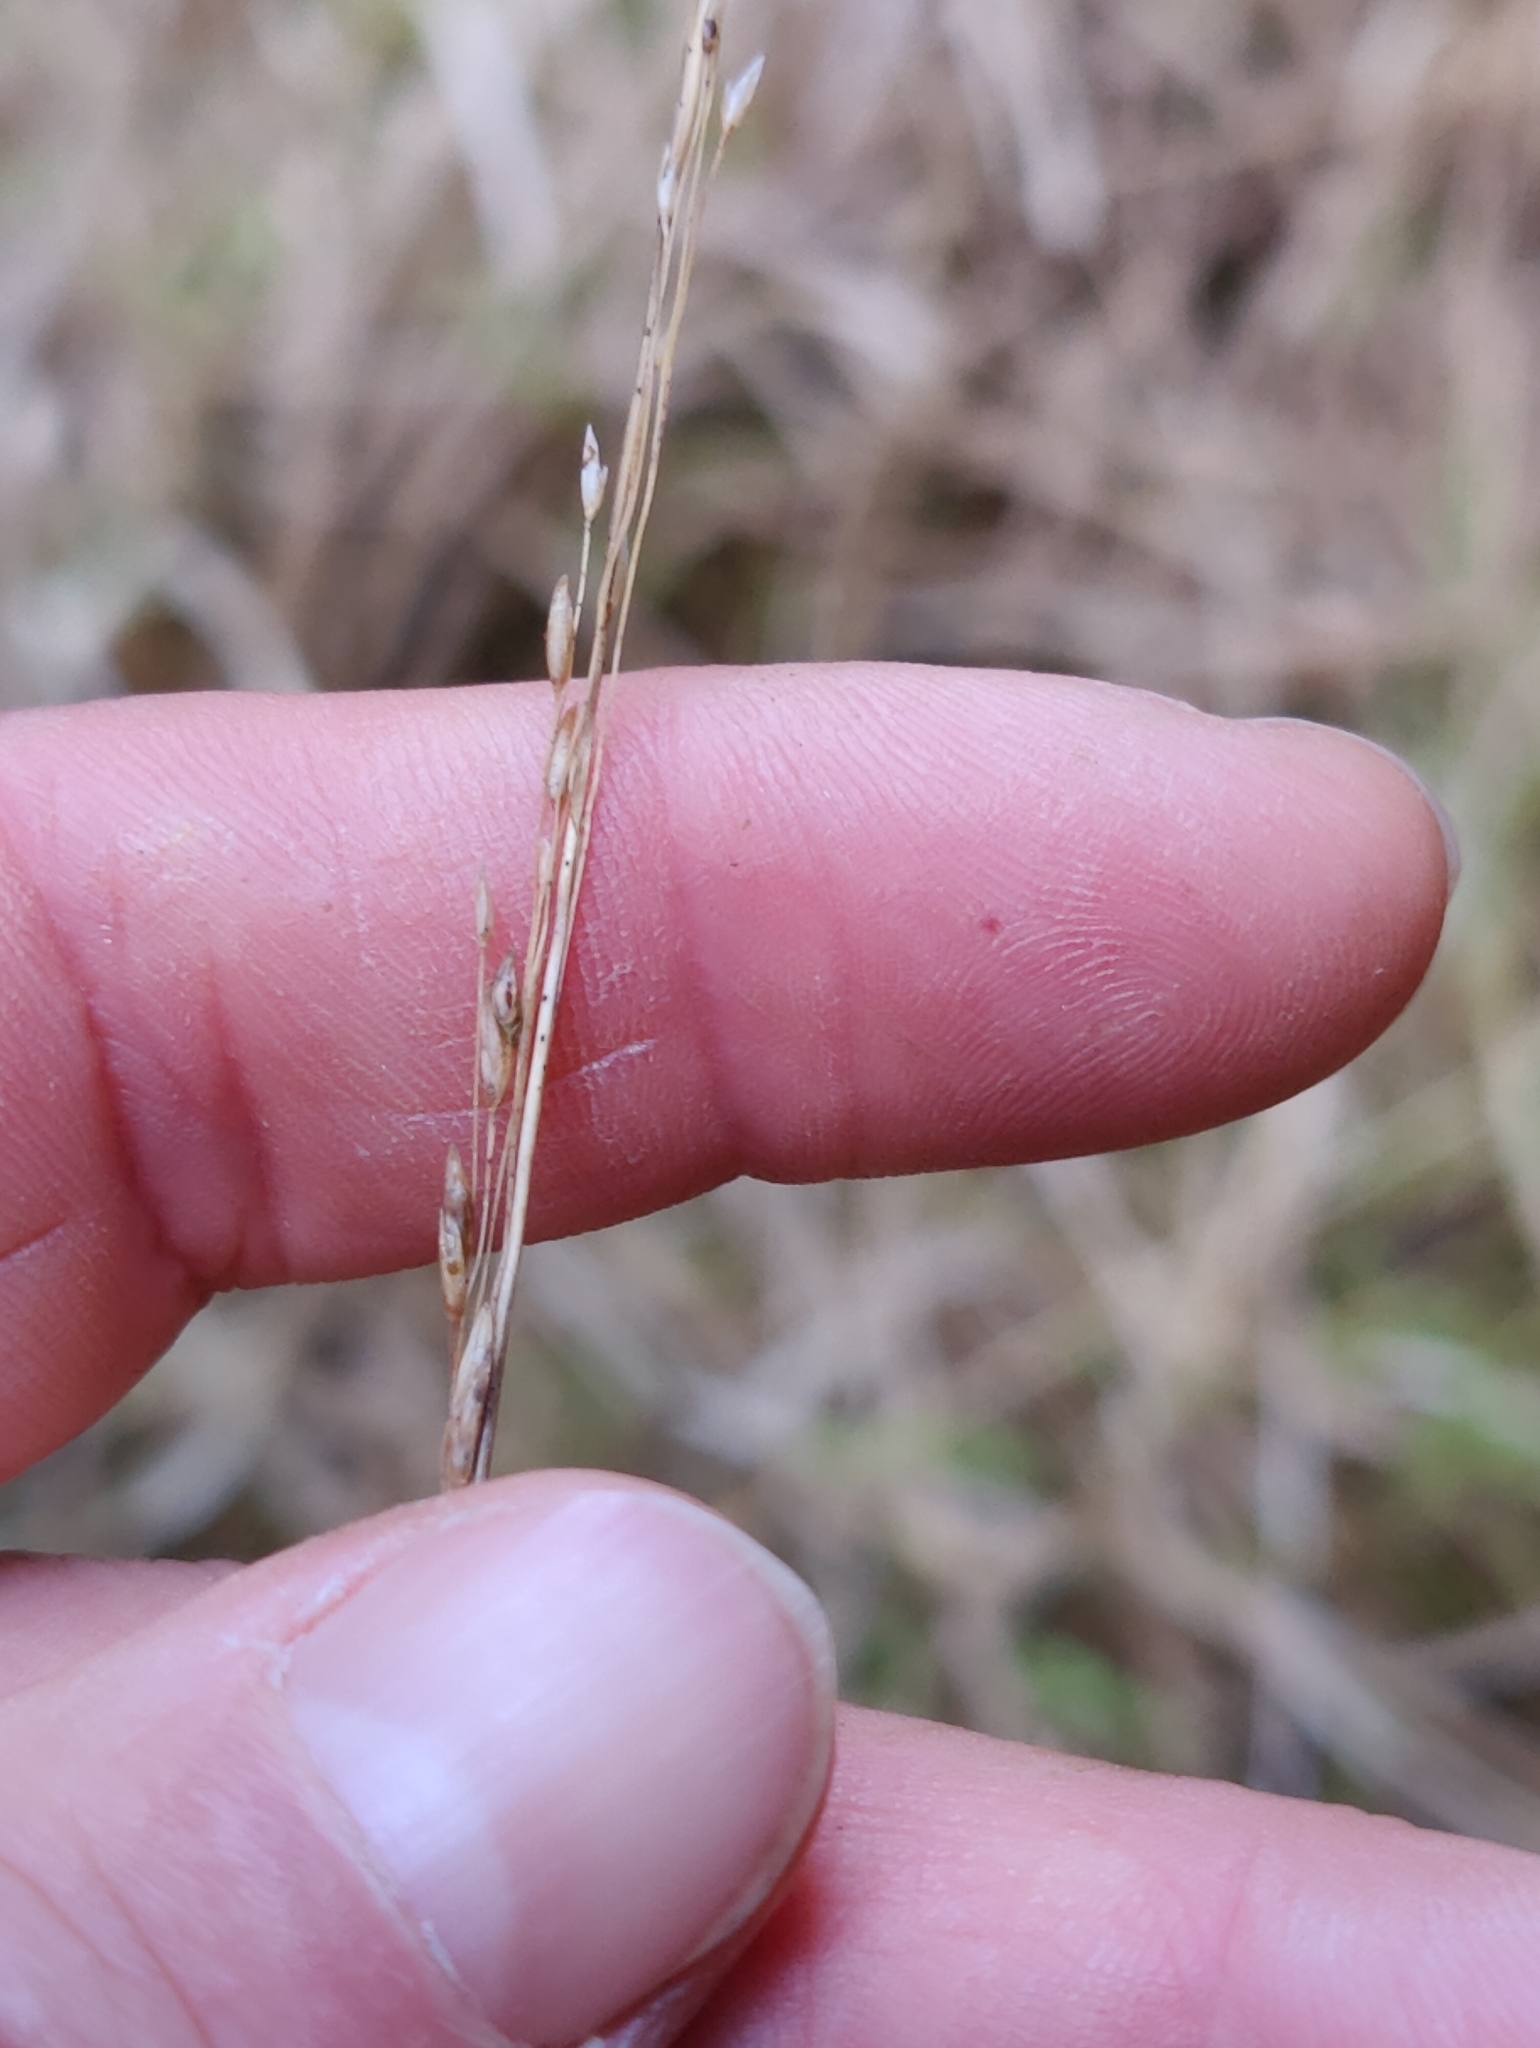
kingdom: Plantae
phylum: Tracheophyta
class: Liliopsida
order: Poales
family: Poaceae
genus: Molinia
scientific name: Molinia caerulea
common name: Purple moor-grass
